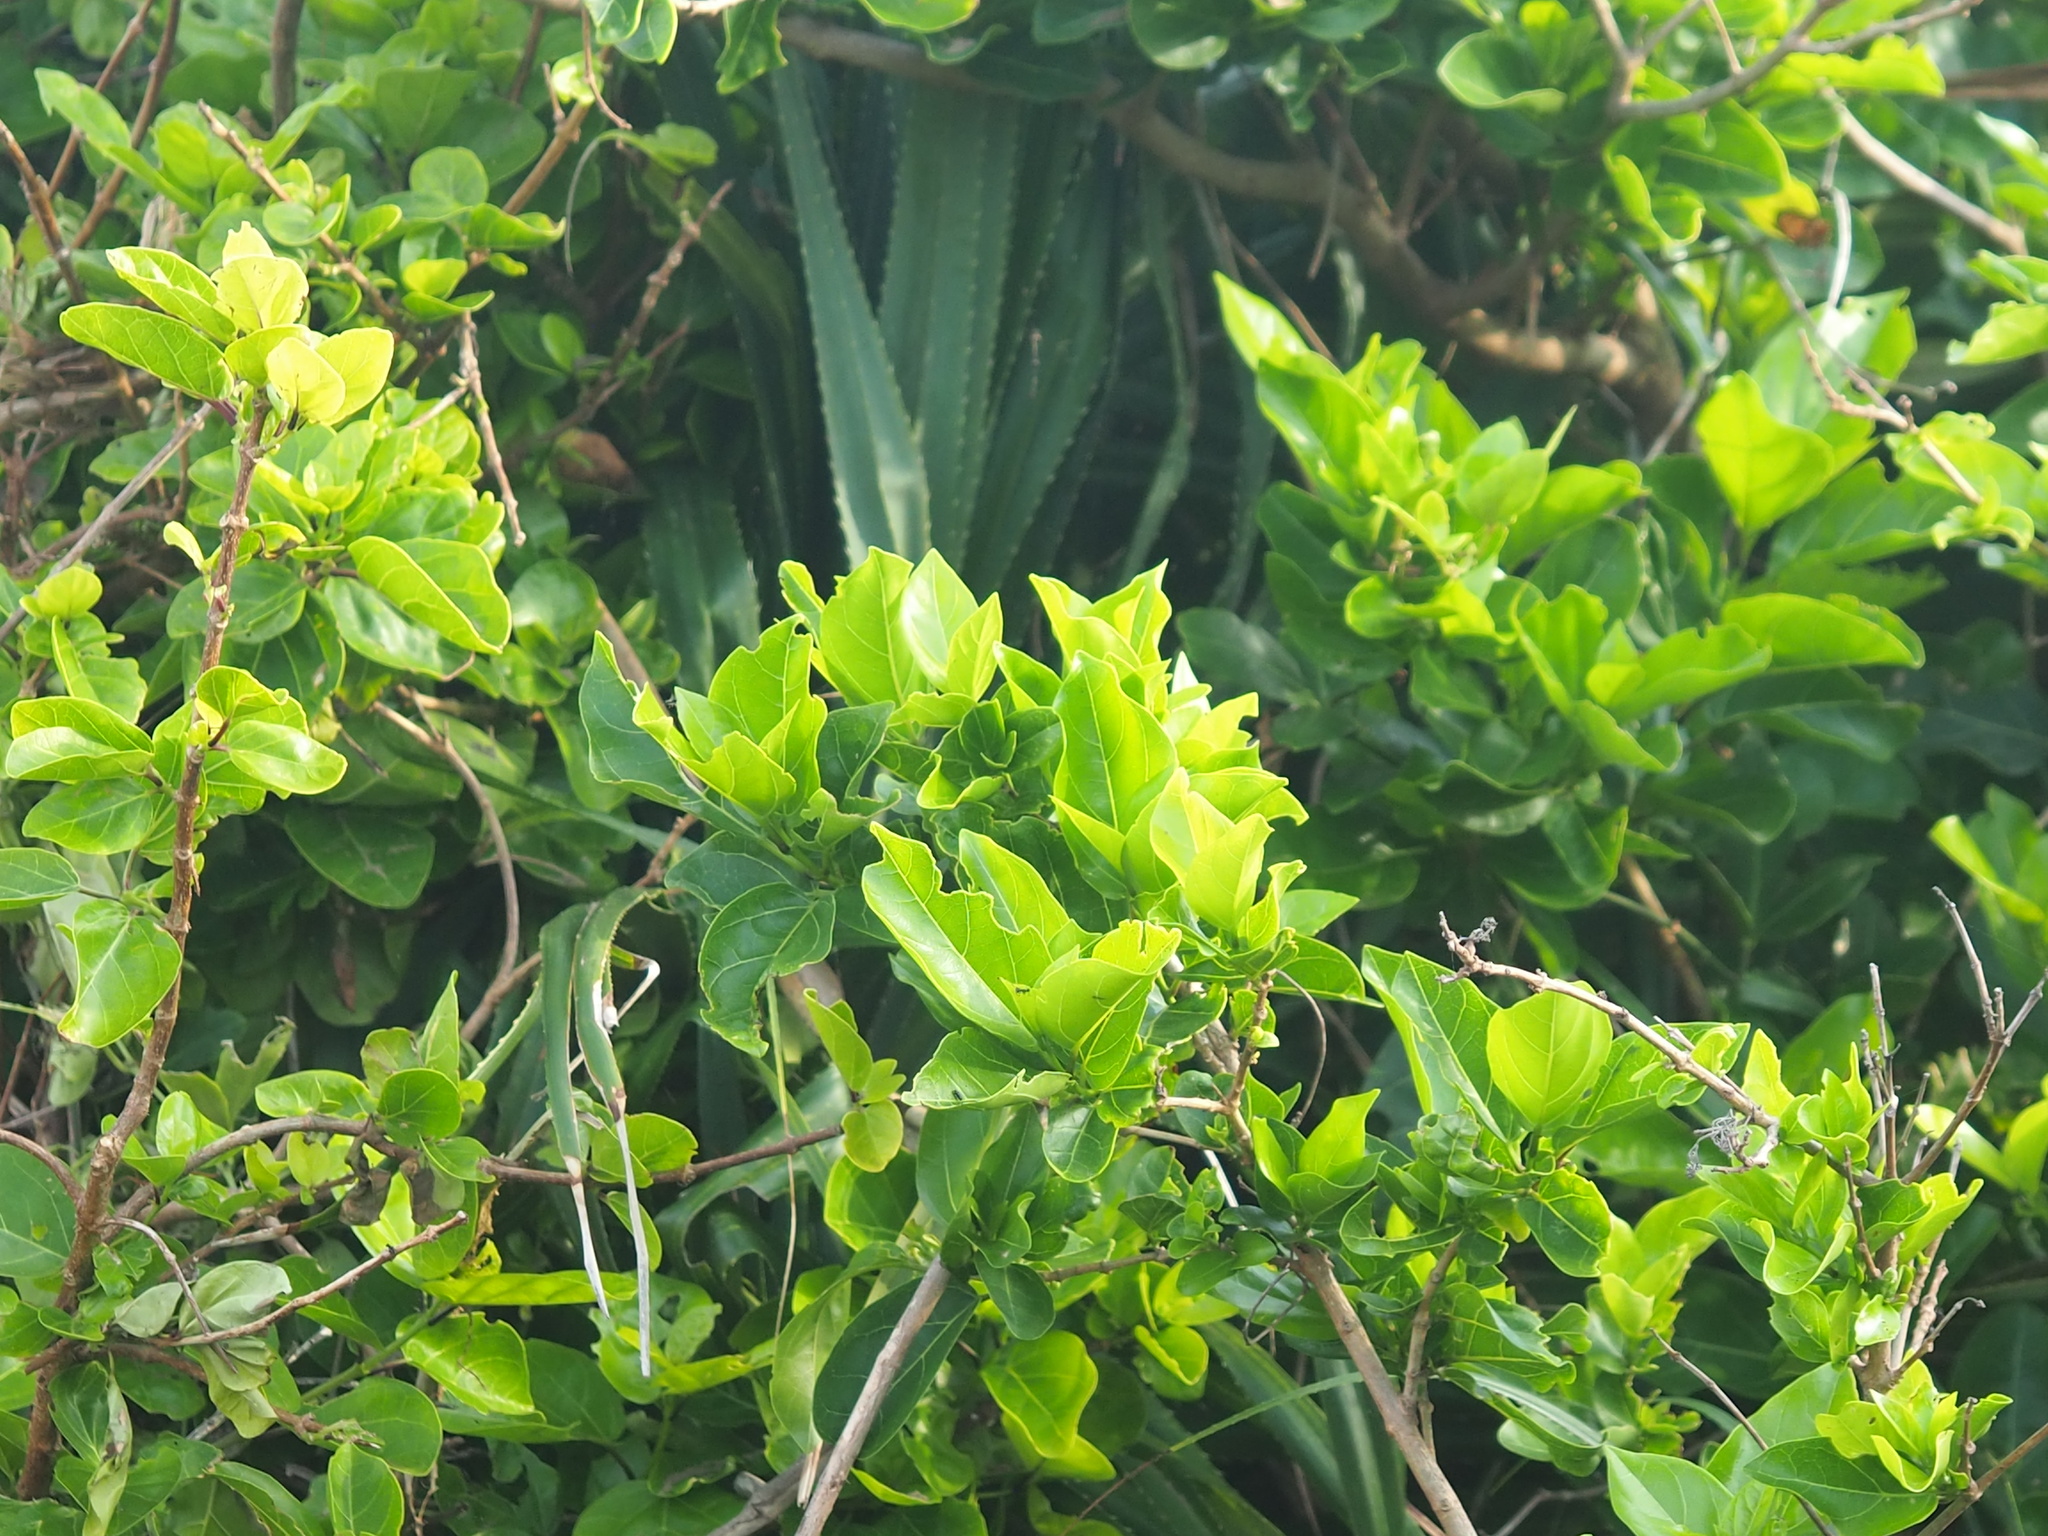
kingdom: Plantae
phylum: Tracheophyta
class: Magnoliopsida
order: Lamiales
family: Lamiaceae
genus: Premna
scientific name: Premna serratifolia
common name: Bastard guelder
